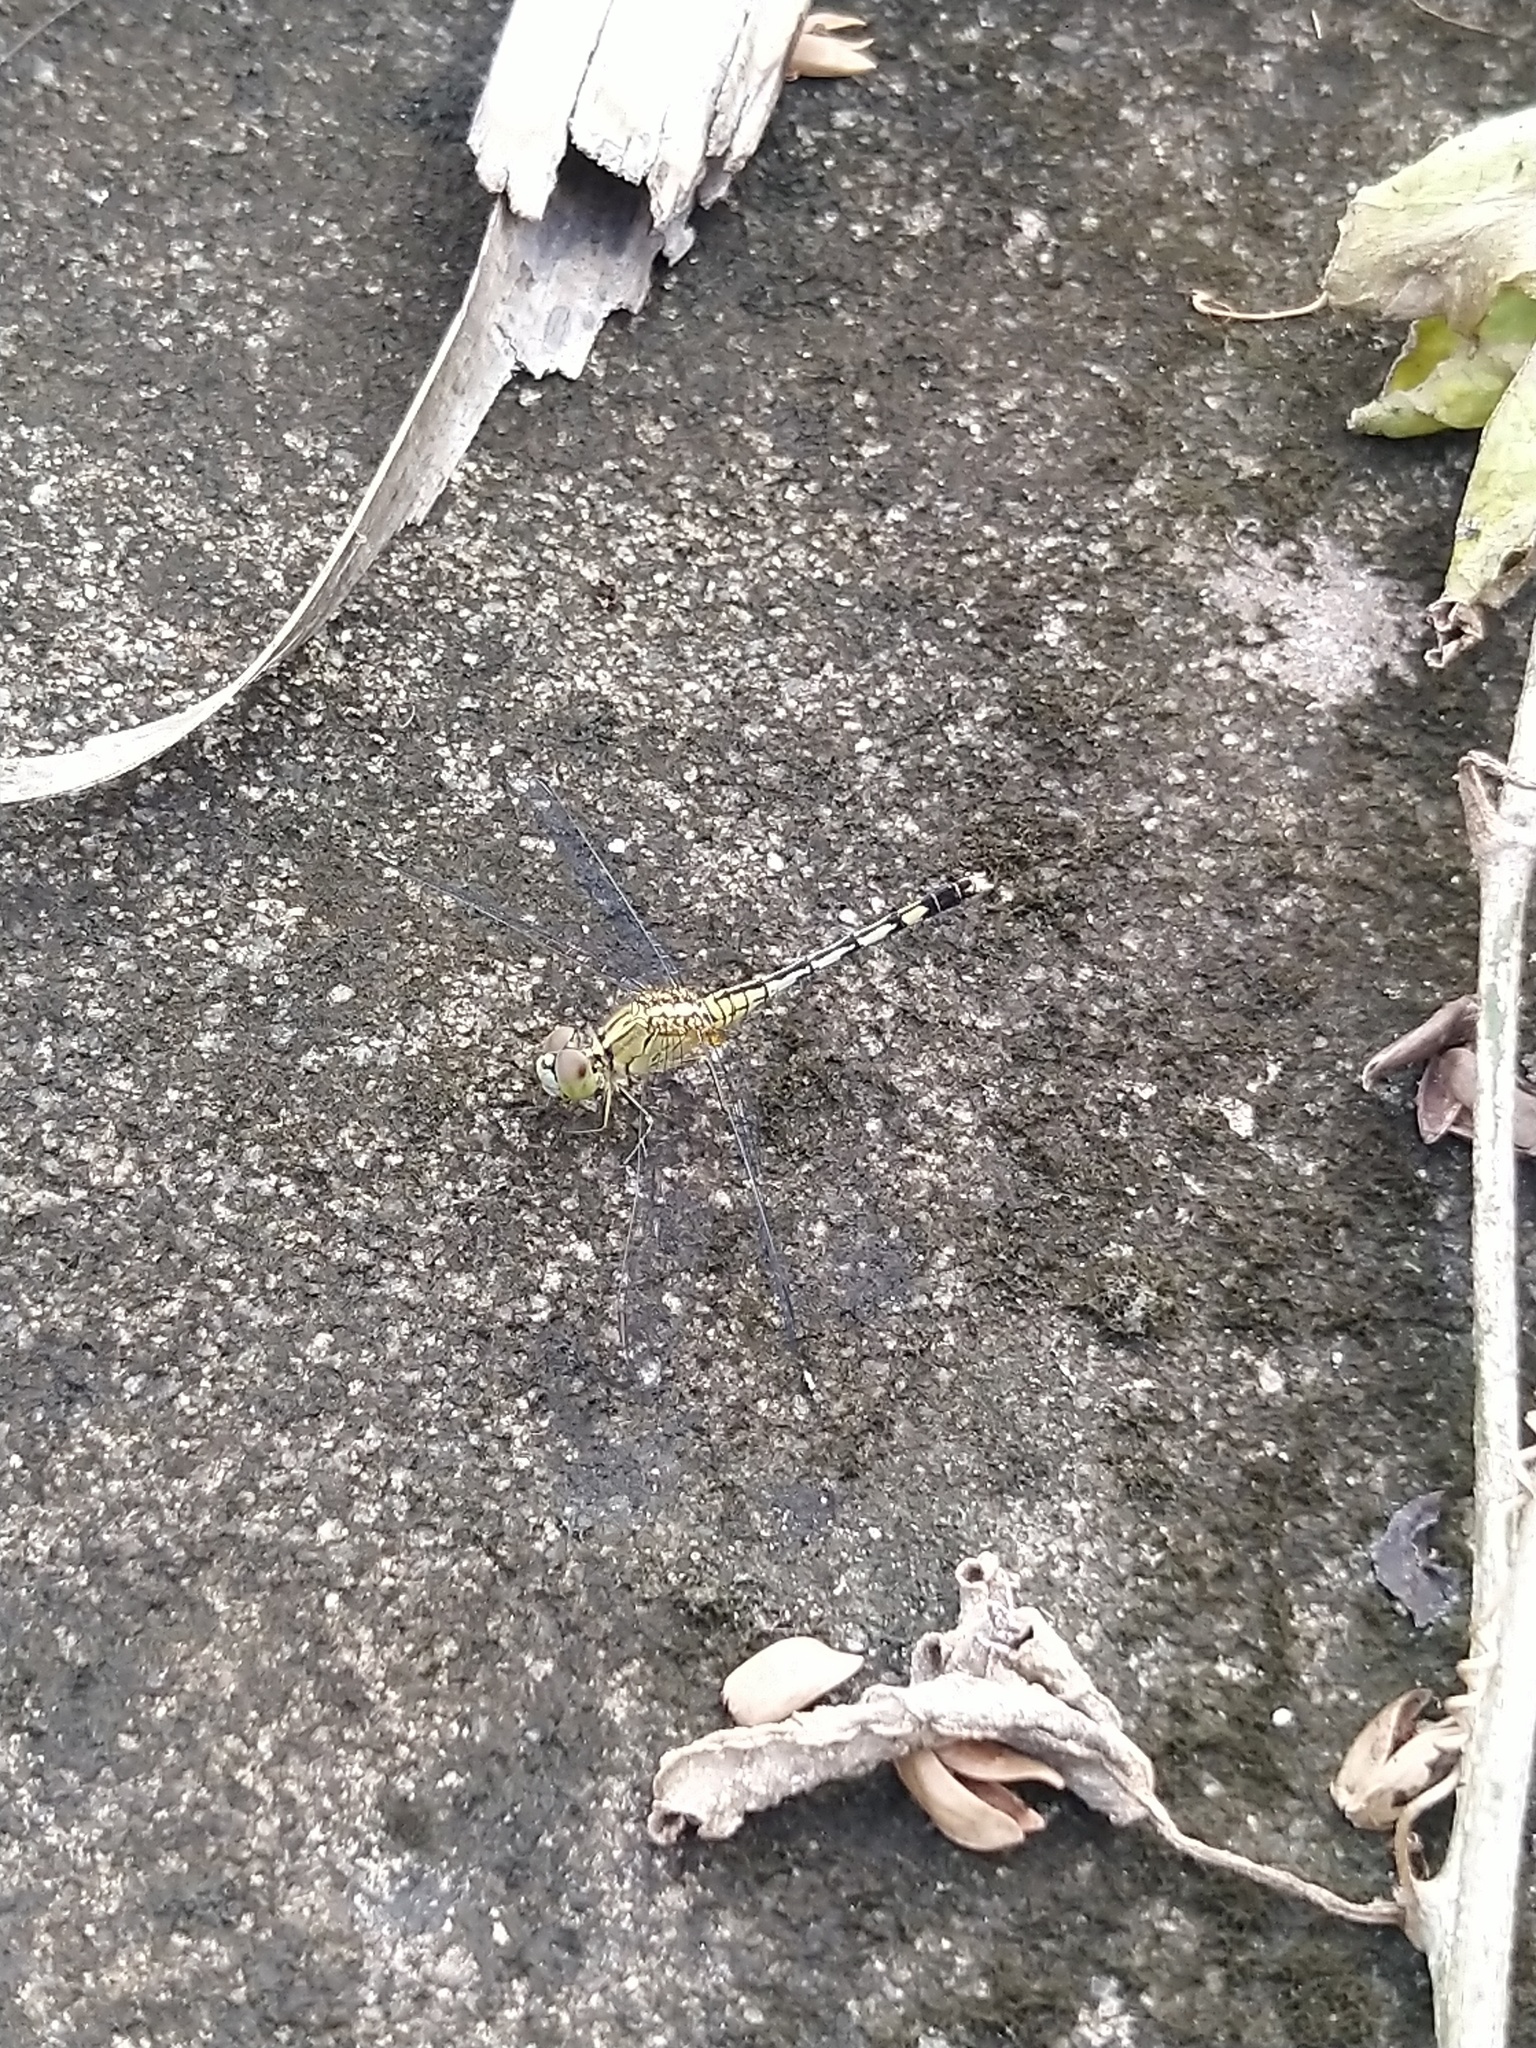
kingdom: Animalia
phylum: Arthropoda
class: Insecta
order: Odonata
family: Libellulidae
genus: Diplacodes
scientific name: Diplacodes trivialis
